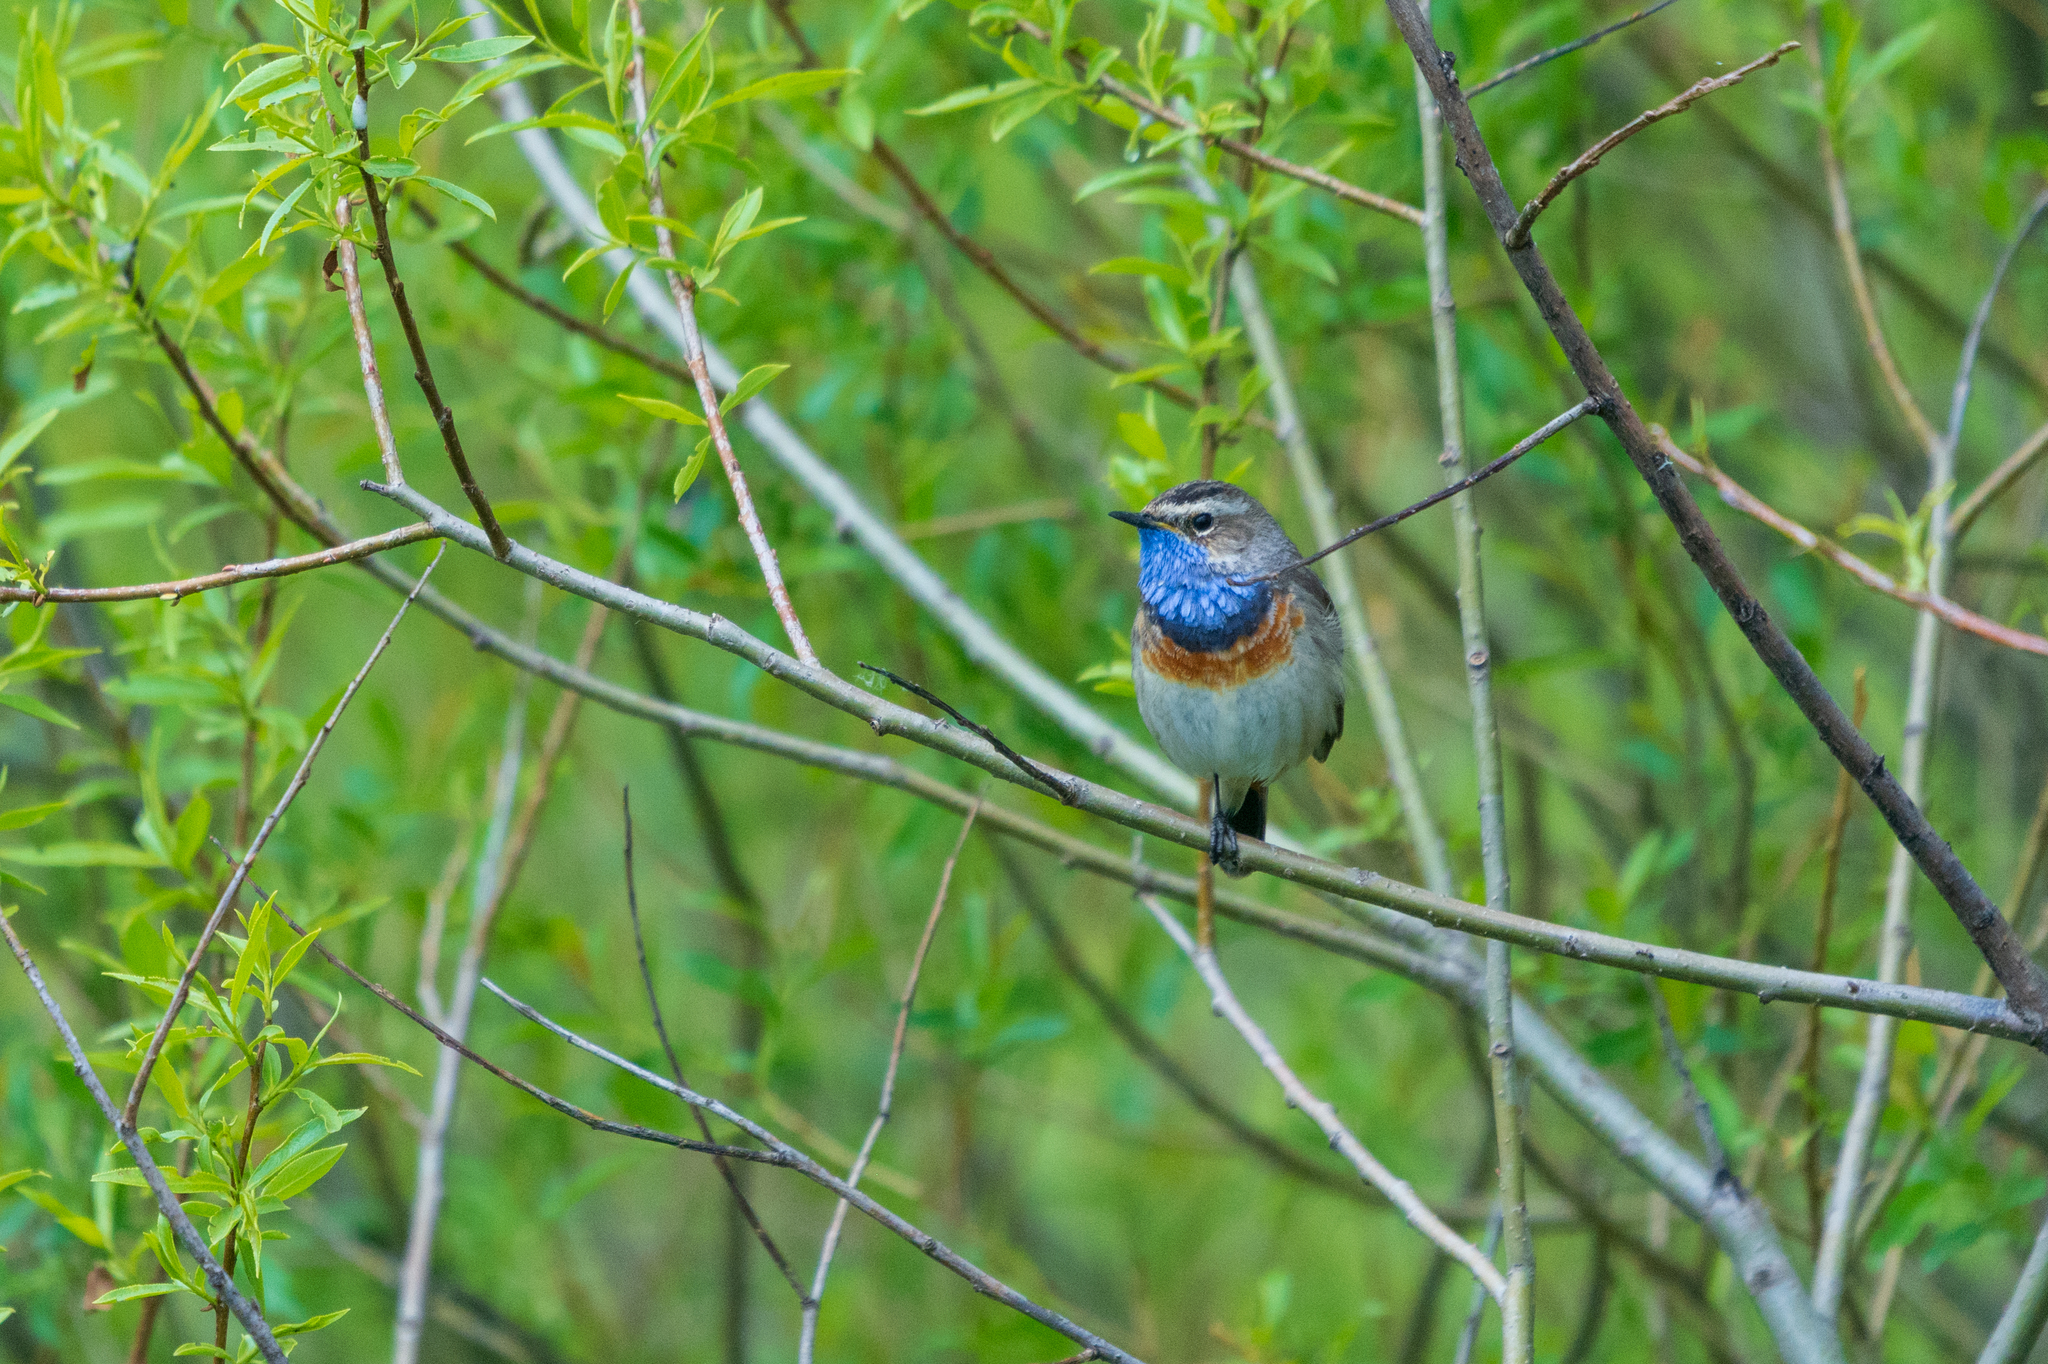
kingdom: Animalia
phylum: Chordata
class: Aves
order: Passeriformes
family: Muscicapidae
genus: Luscinia
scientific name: Luscinia svecica
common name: Bluethroat
